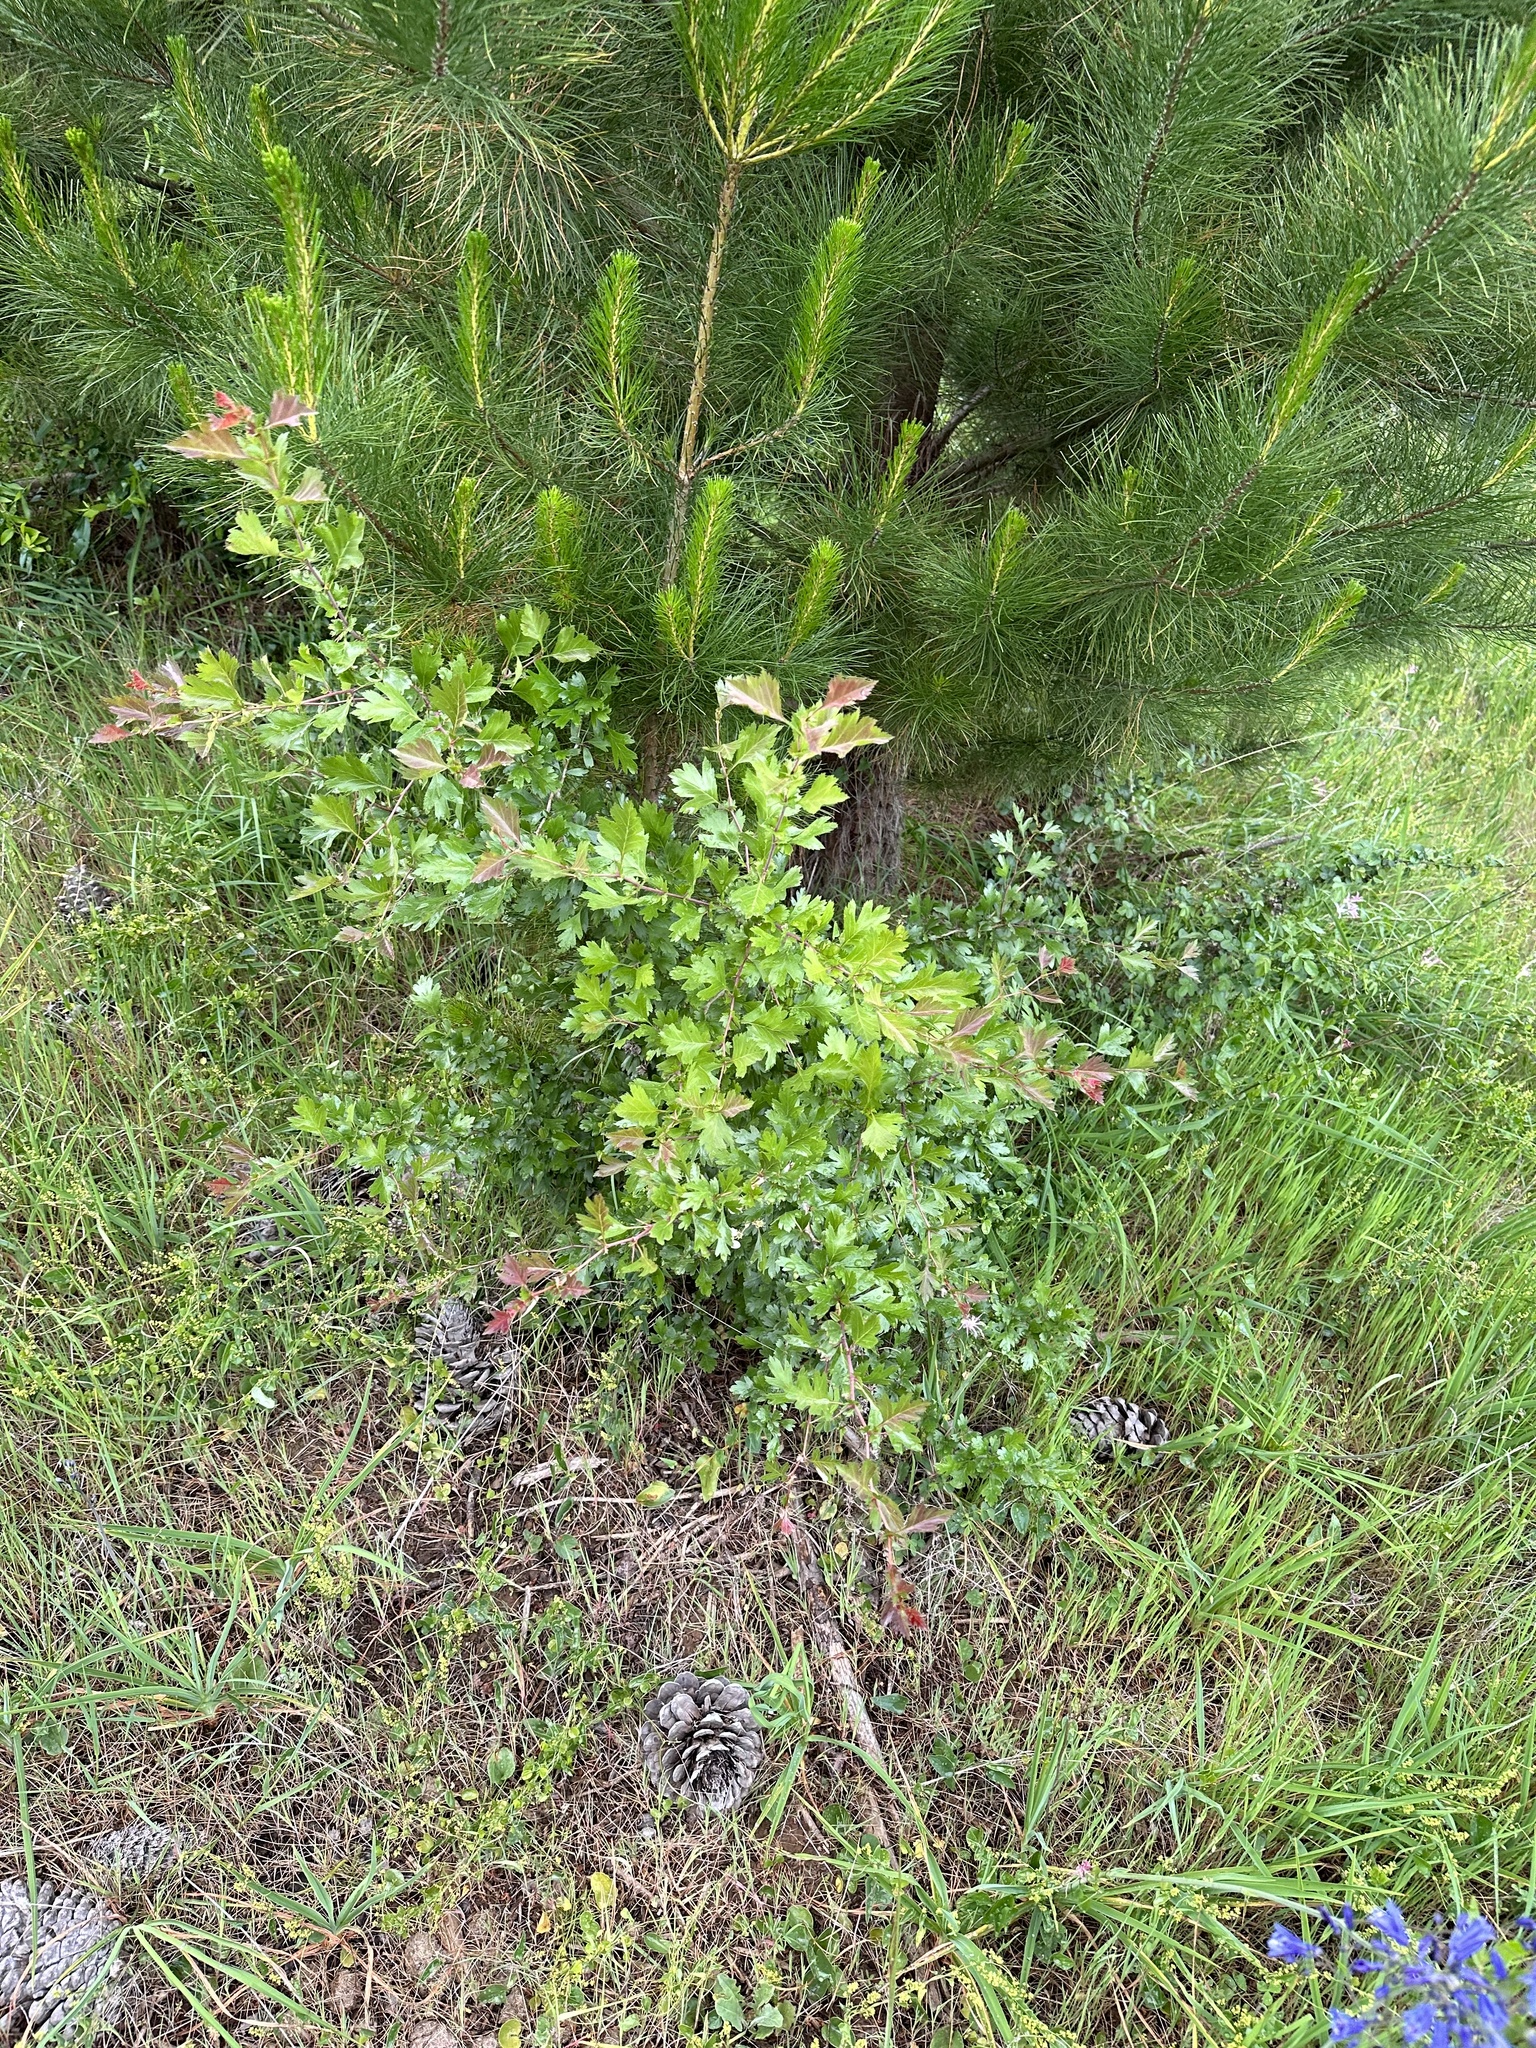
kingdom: Plantae
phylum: Tracheophyta
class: Magnoliopsida
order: Rosales
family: Rosaceae
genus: Crataegus
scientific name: Crataegus monogyna
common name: Hawthorn
